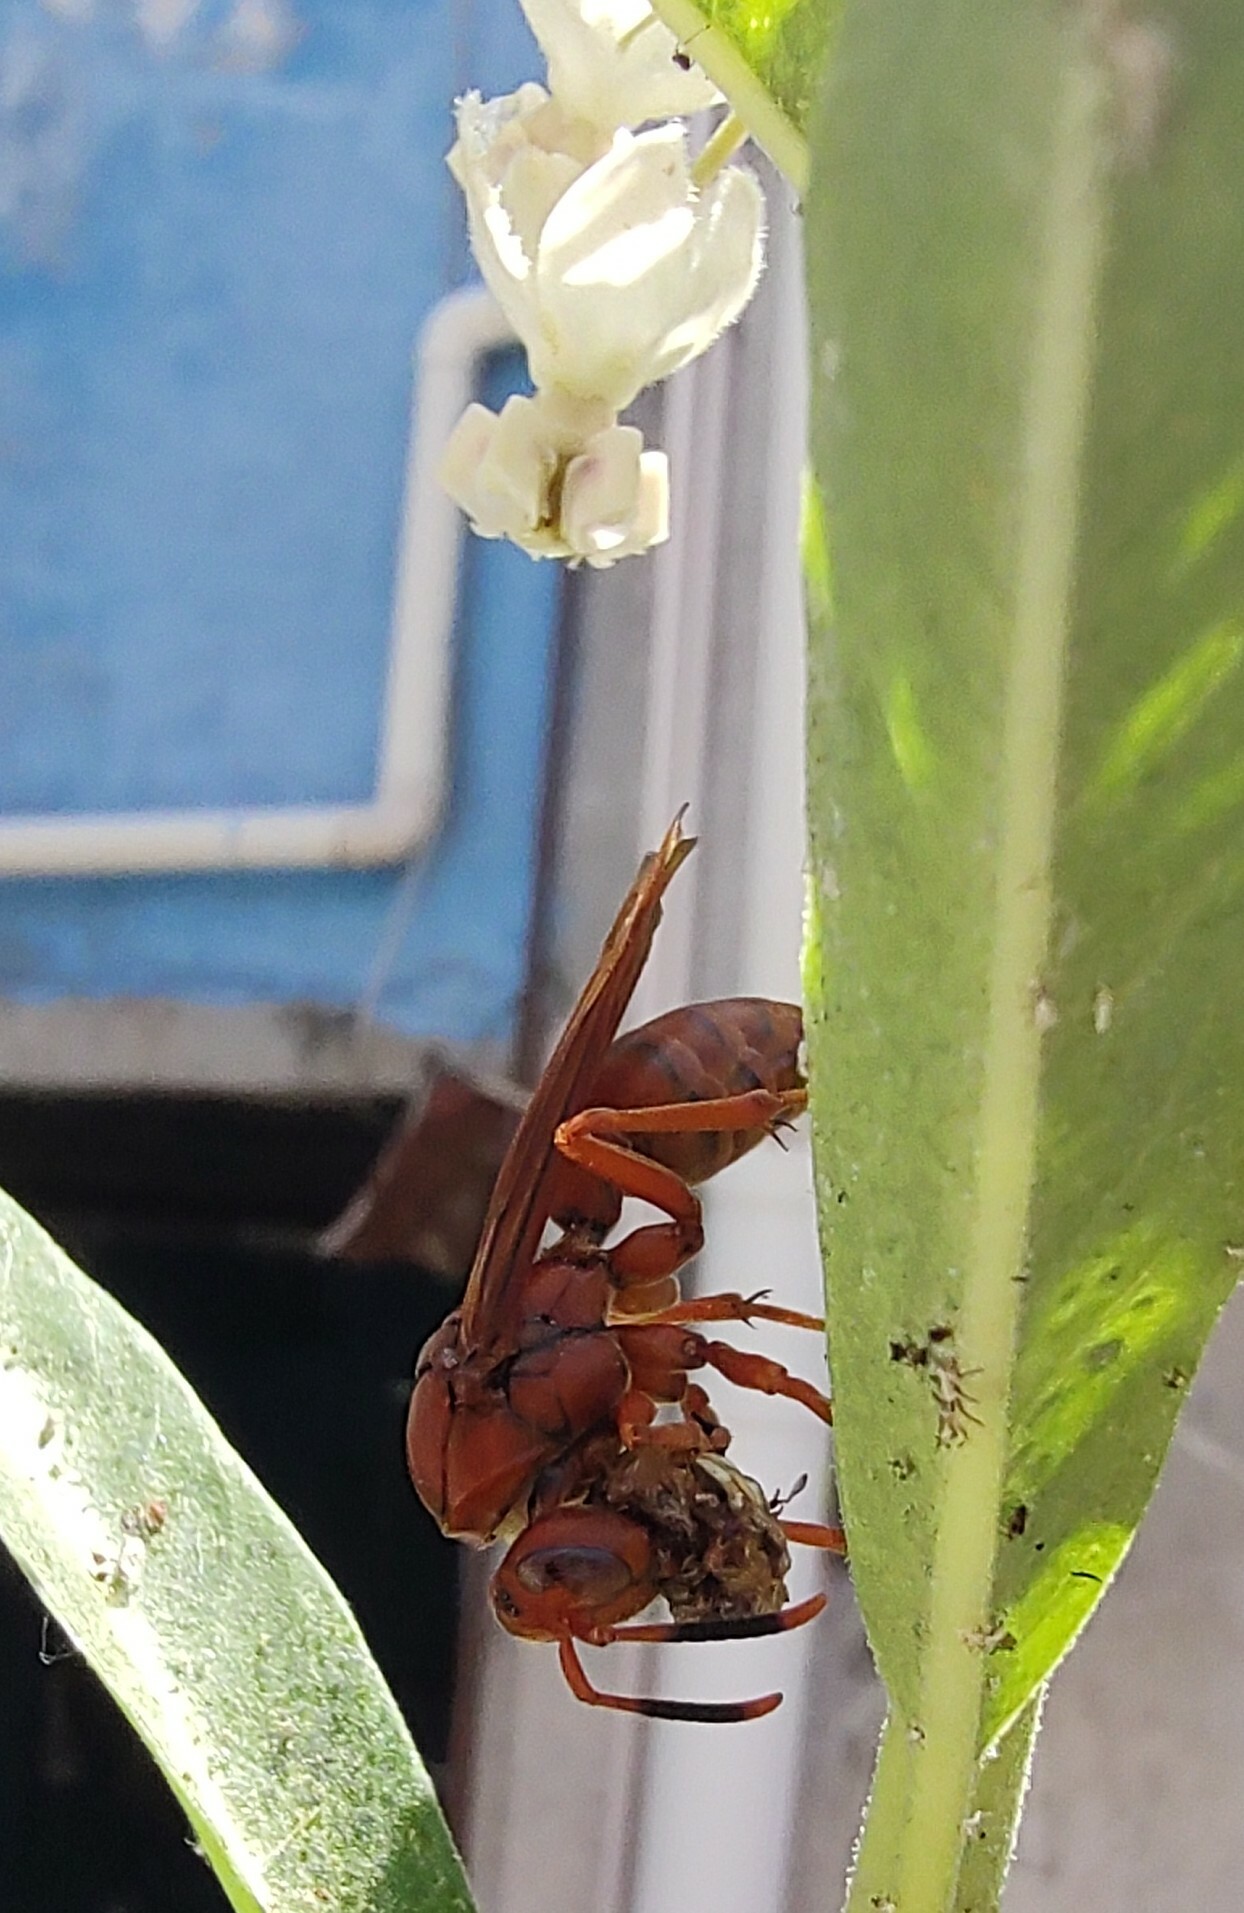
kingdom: Animalia
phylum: Arthropoda
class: Insecta
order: Hymenoptera
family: Eumenidae
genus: Polistes
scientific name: Polistes canadensis
